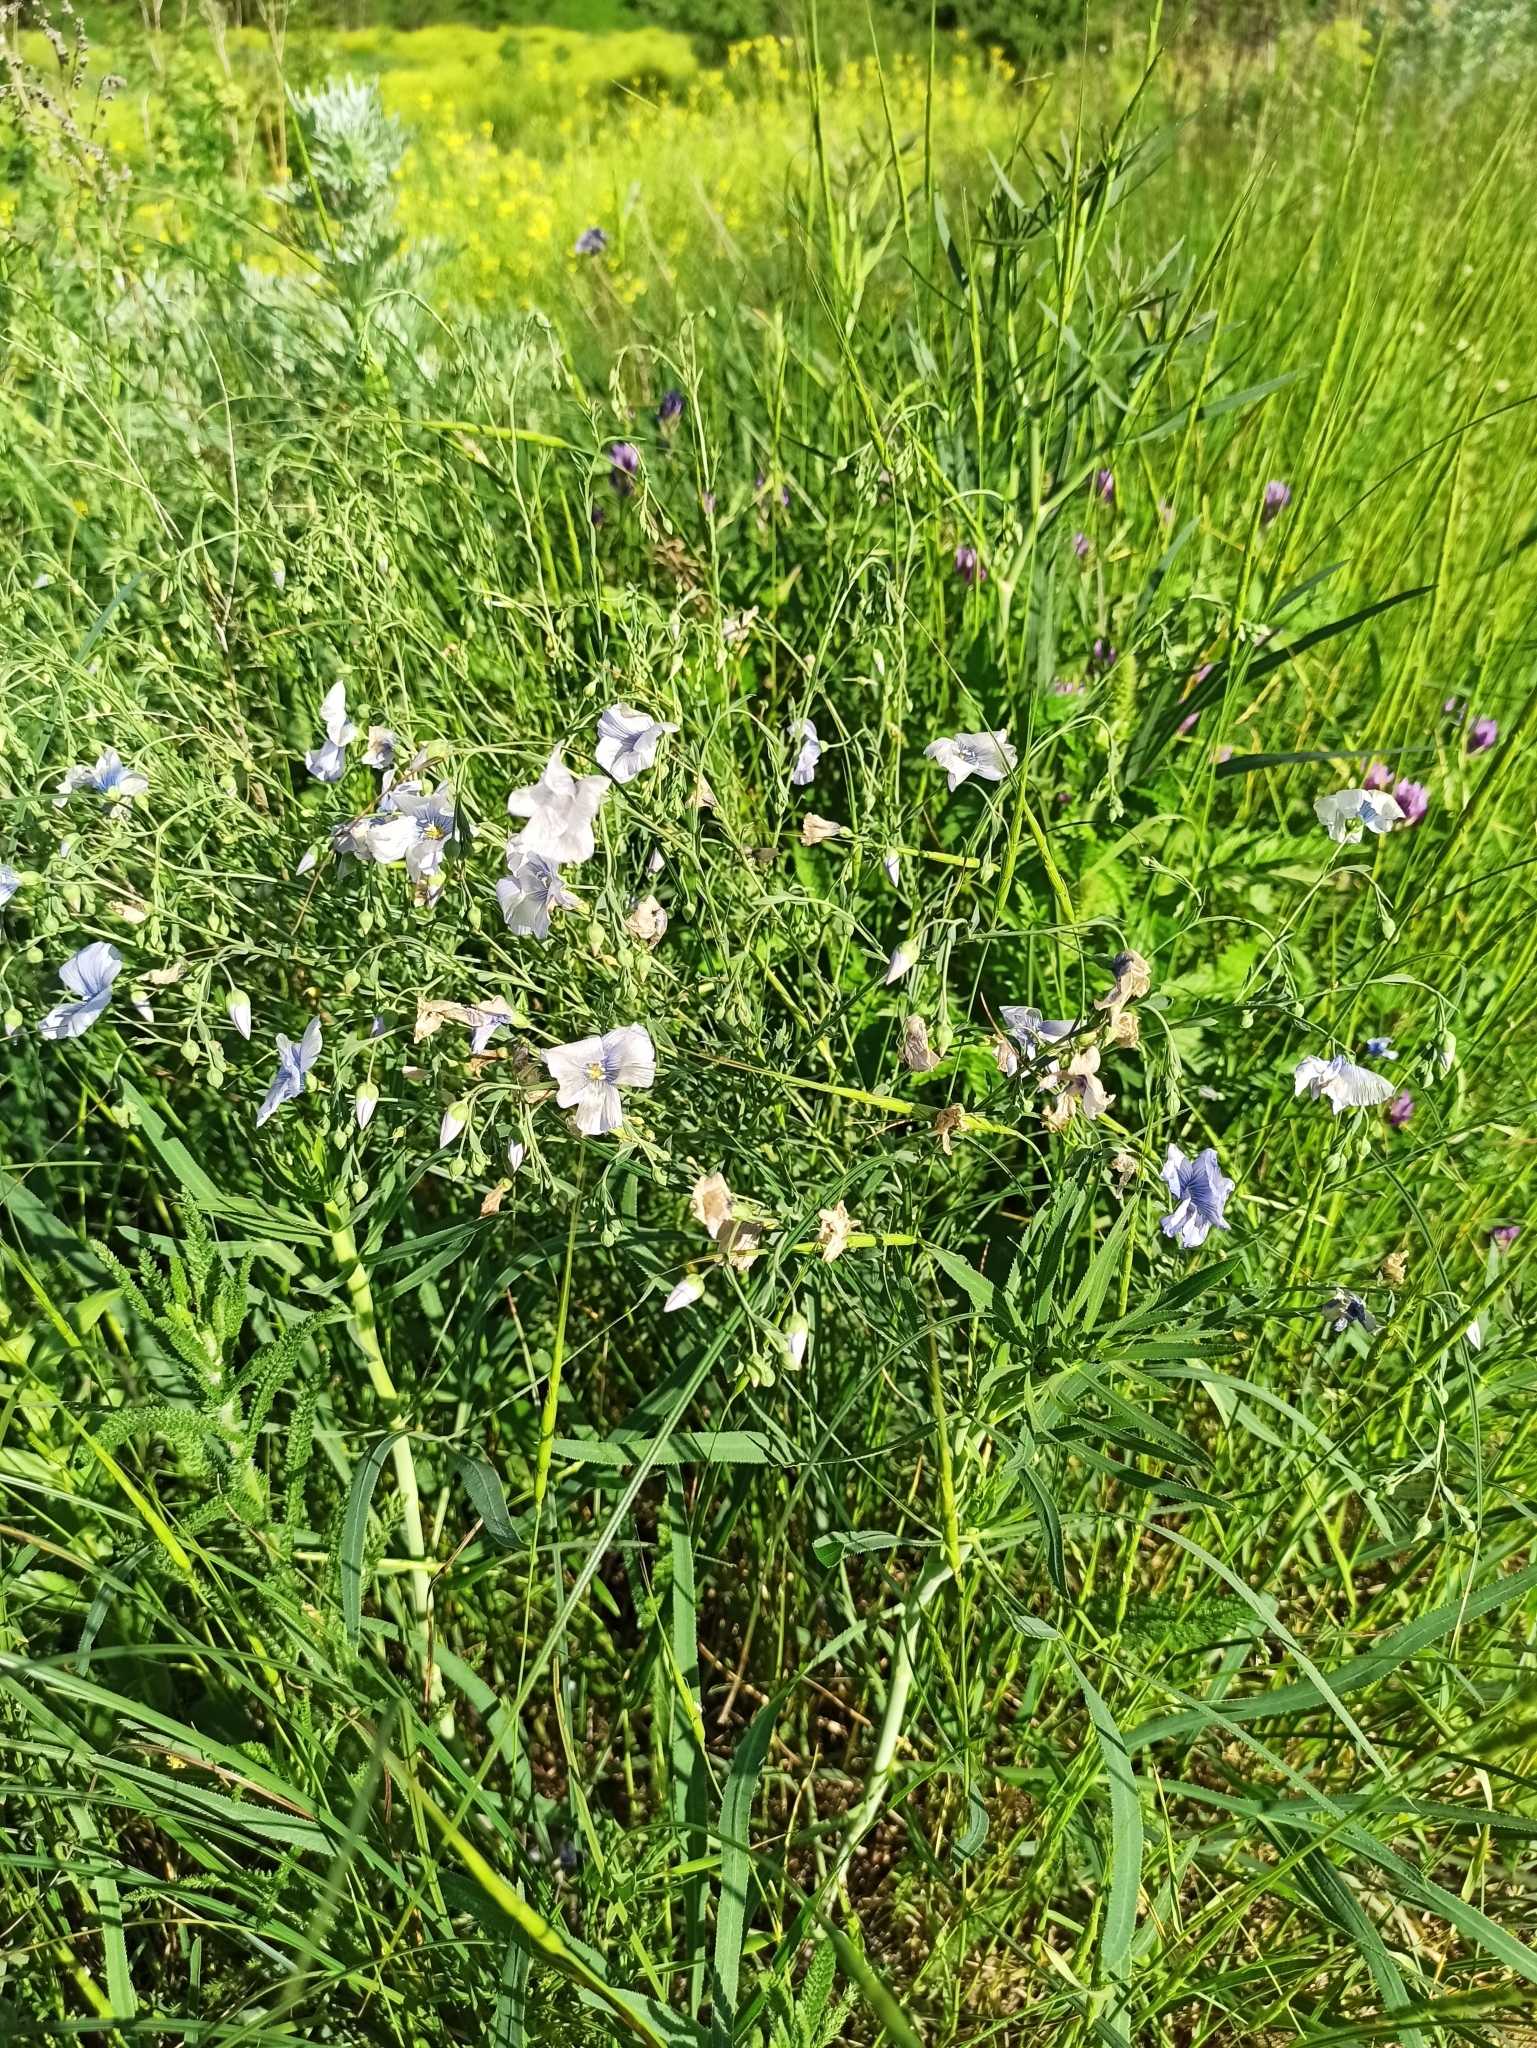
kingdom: Plantae
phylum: Tracheophyta
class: Magnoliopsida
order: Malpighiales
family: Linaceae
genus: Linum
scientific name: Linum austriacum
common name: Austrian flax
